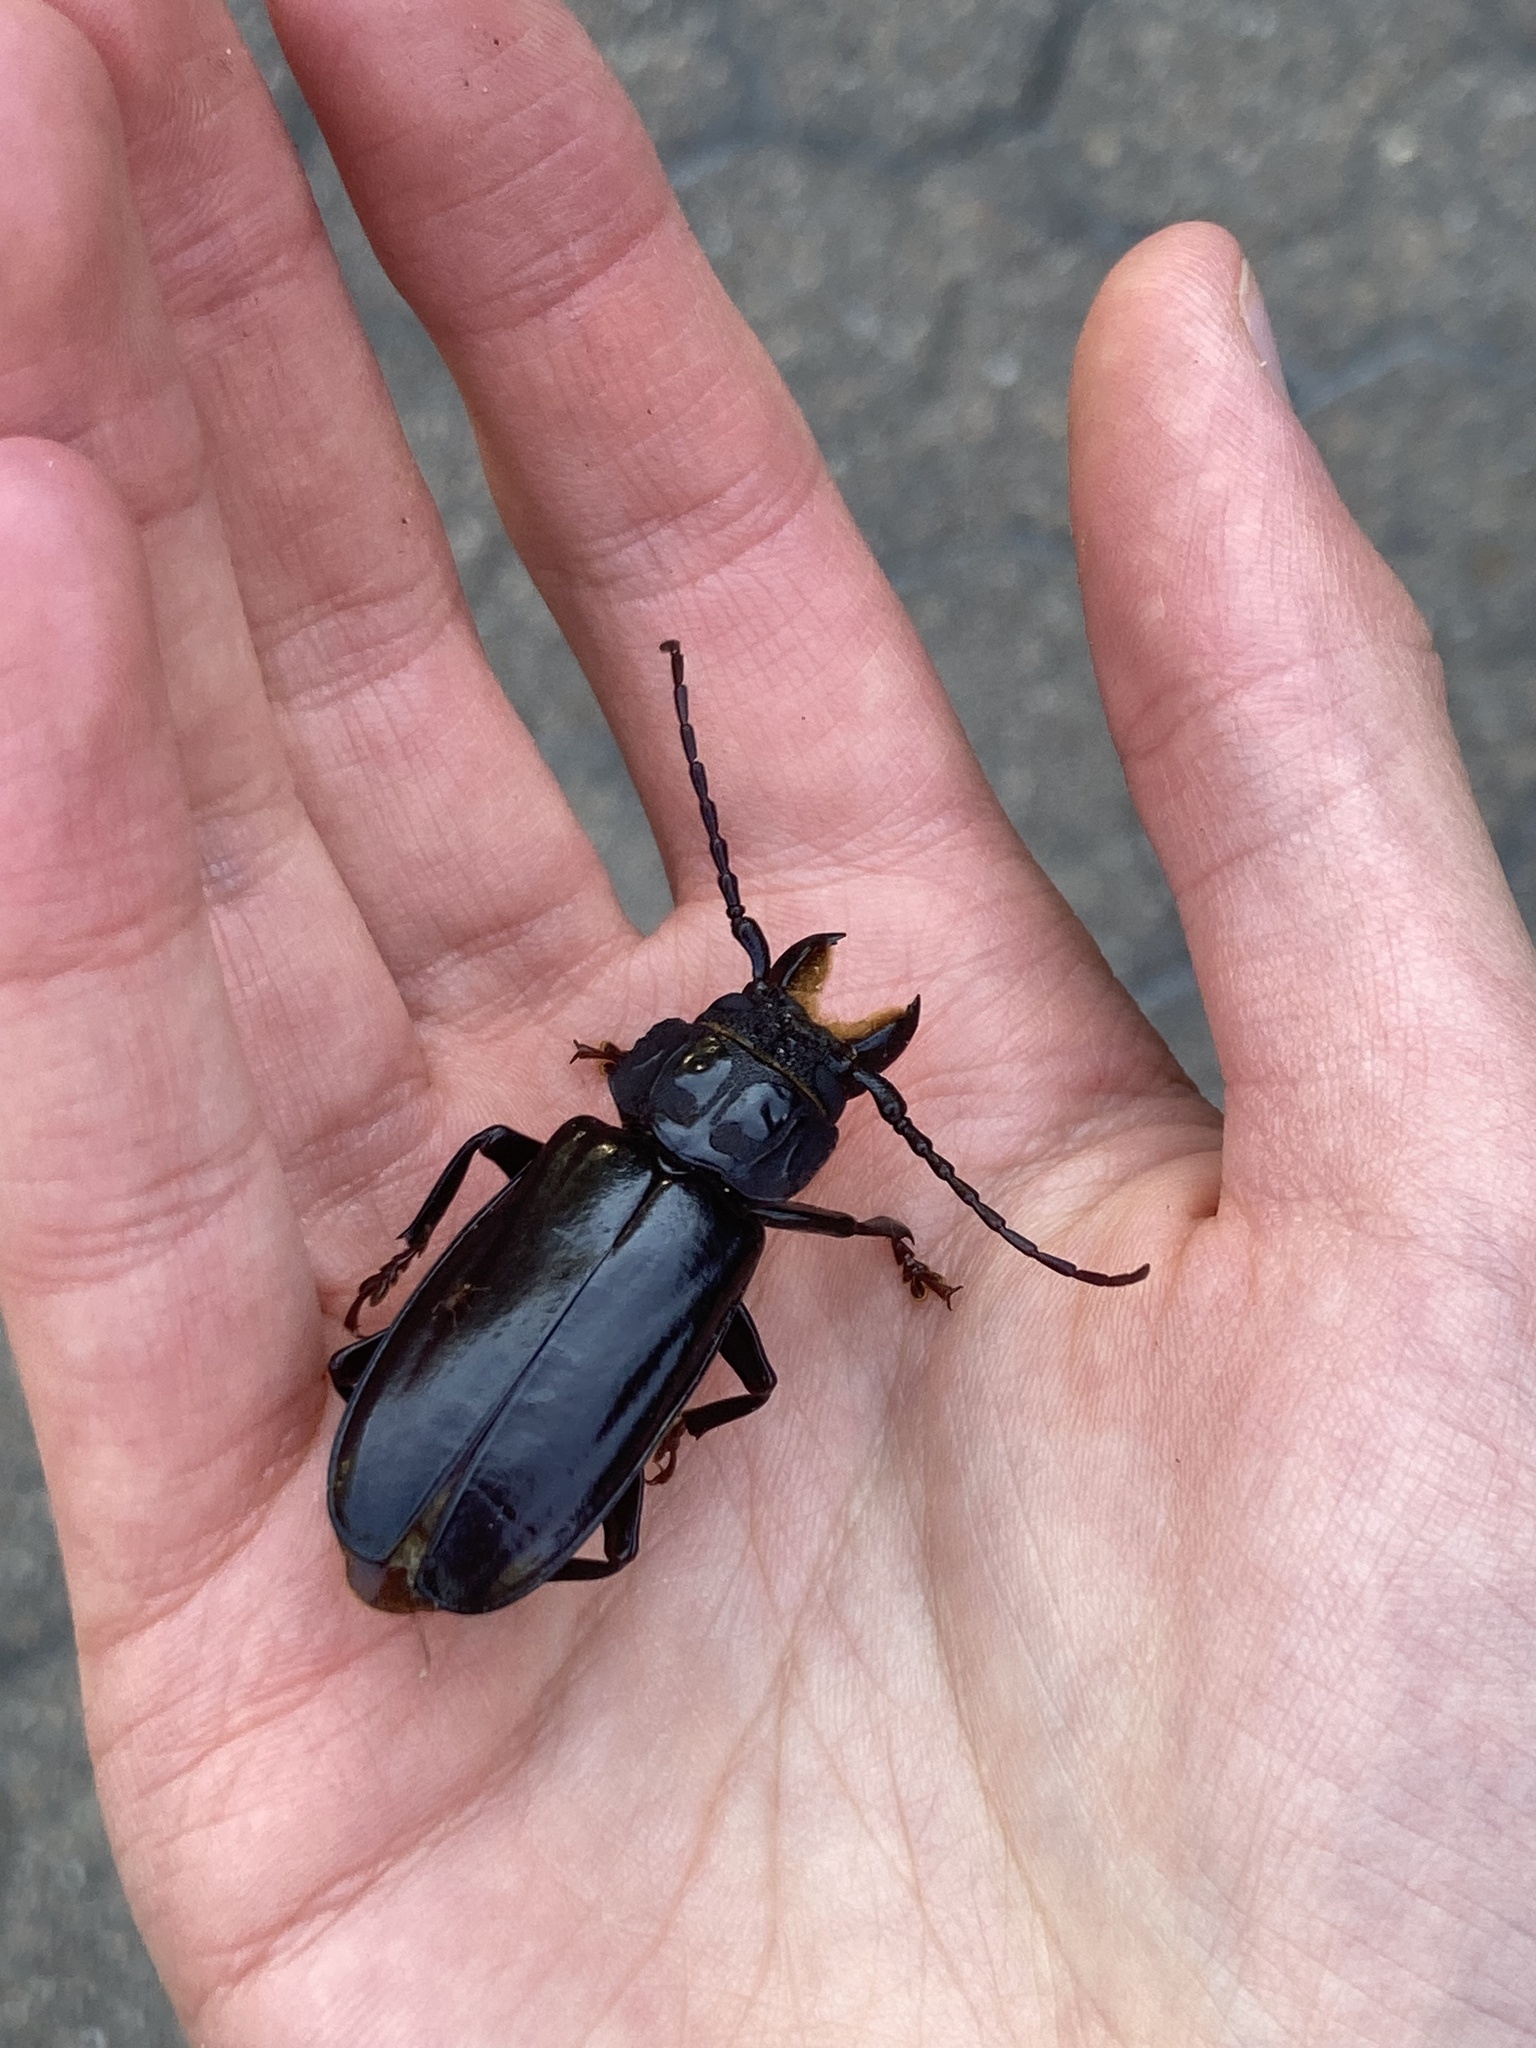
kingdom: Animalia
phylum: Arthropoda
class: Insecta
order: Coleoptera
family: Cerambycidae
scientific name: Cerambycidae
